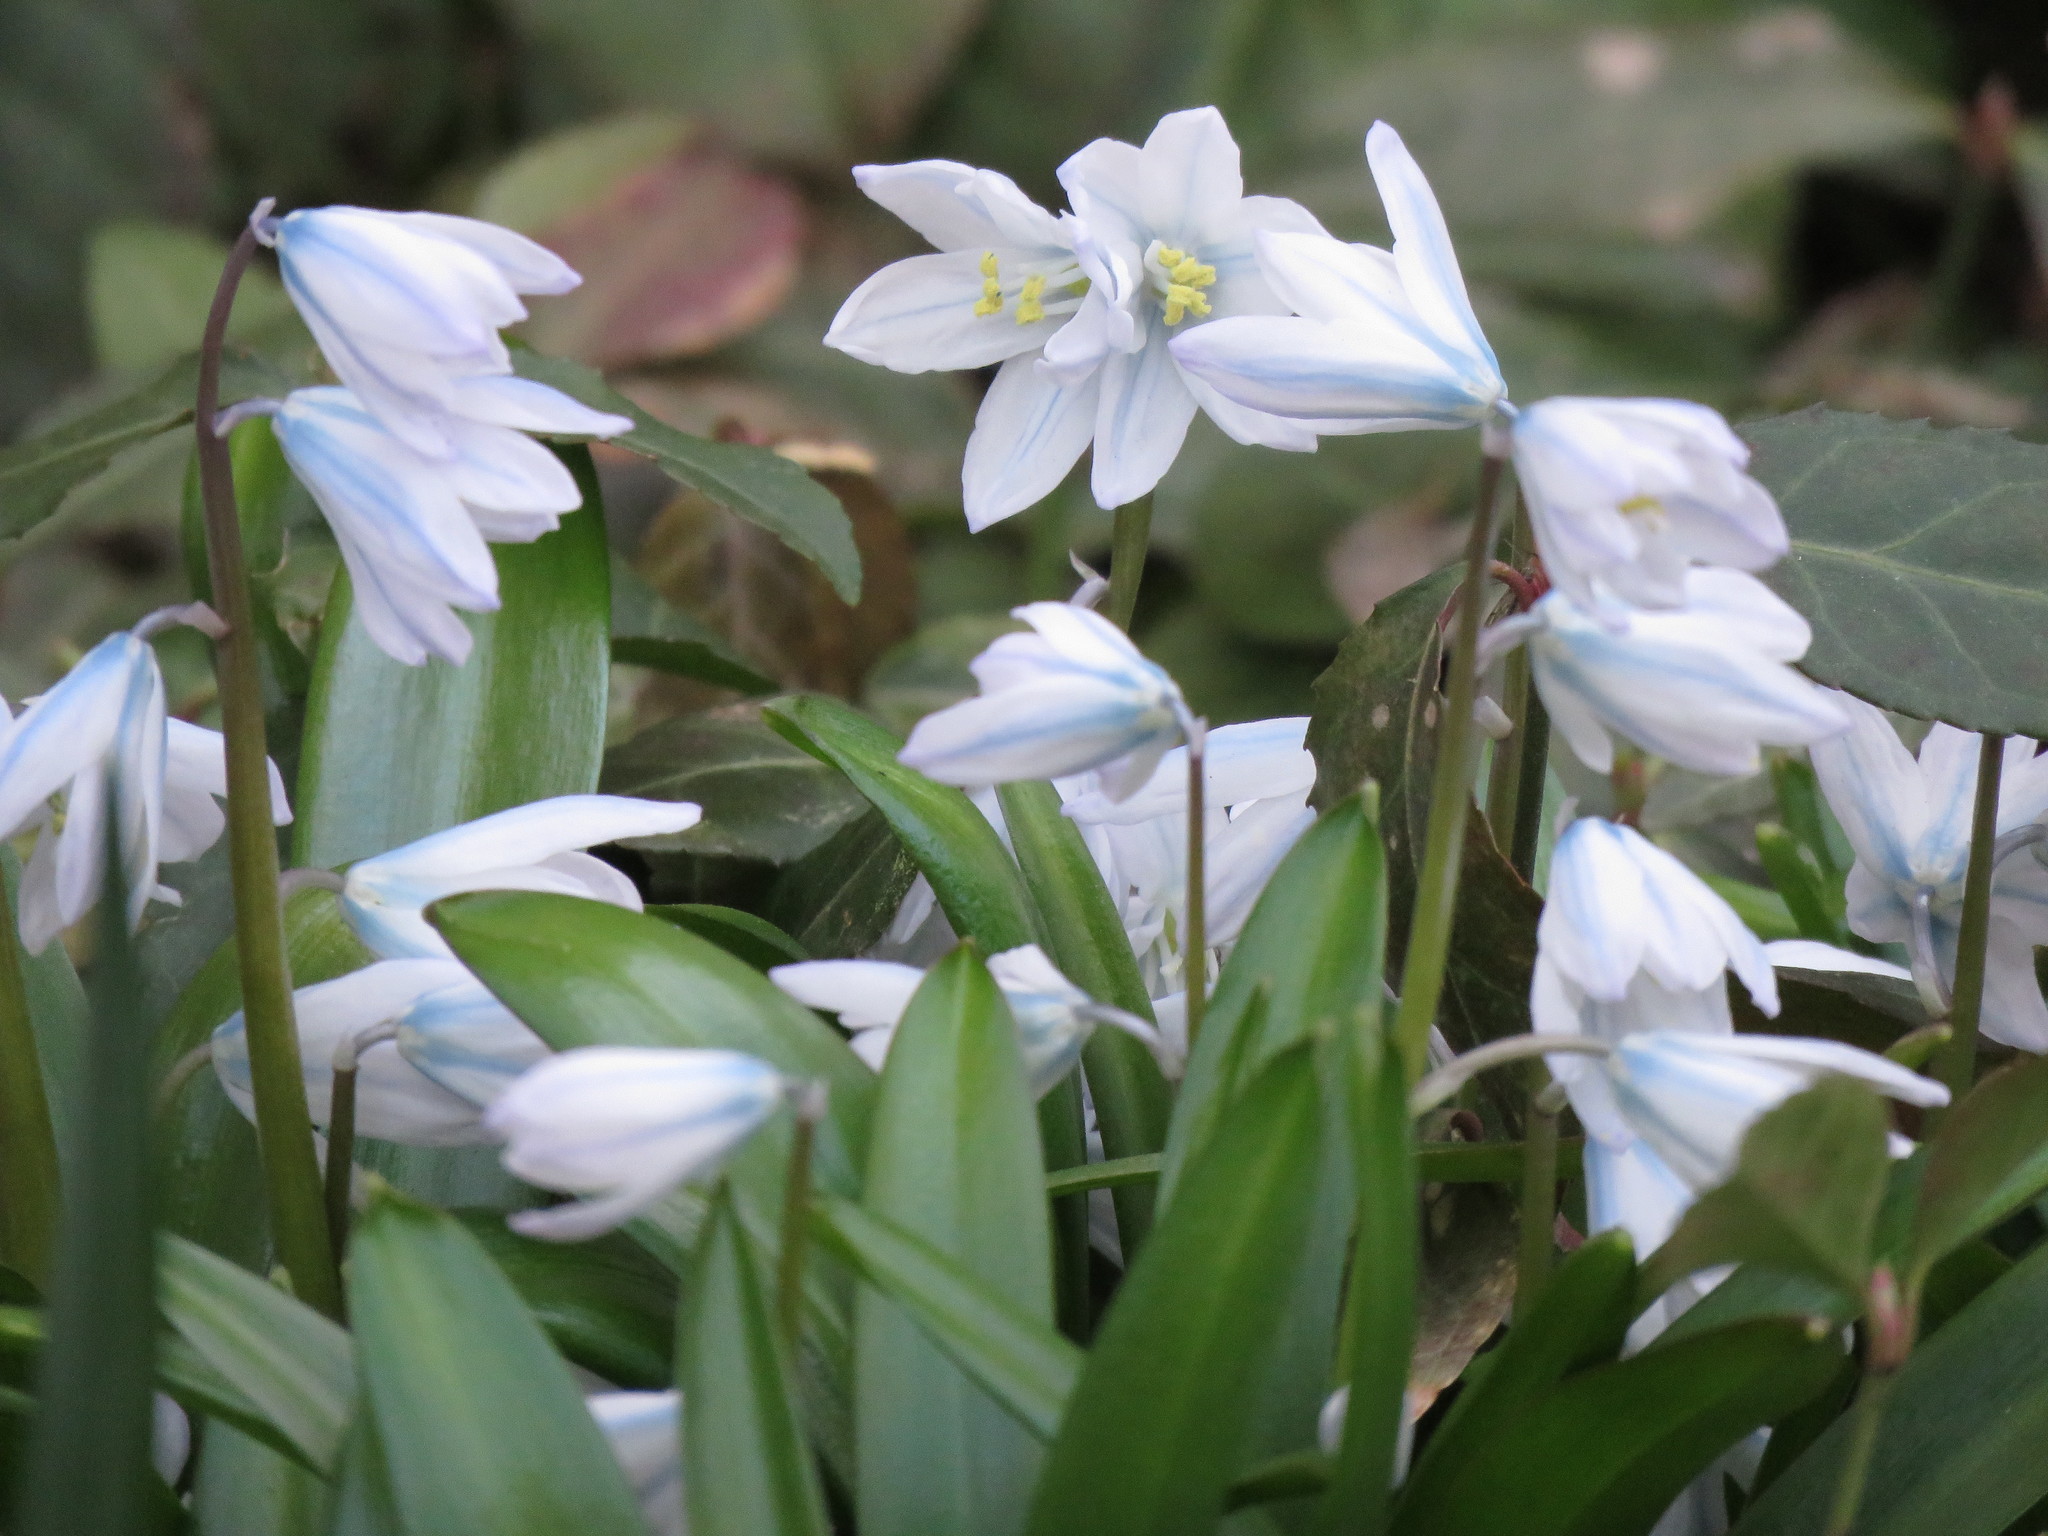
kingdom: Plantae
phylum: Tracheophyta
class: Liliopsida
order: Asparagales
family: Asparagaceae
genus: Scilla
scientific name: Scilla mischtschenkoana
